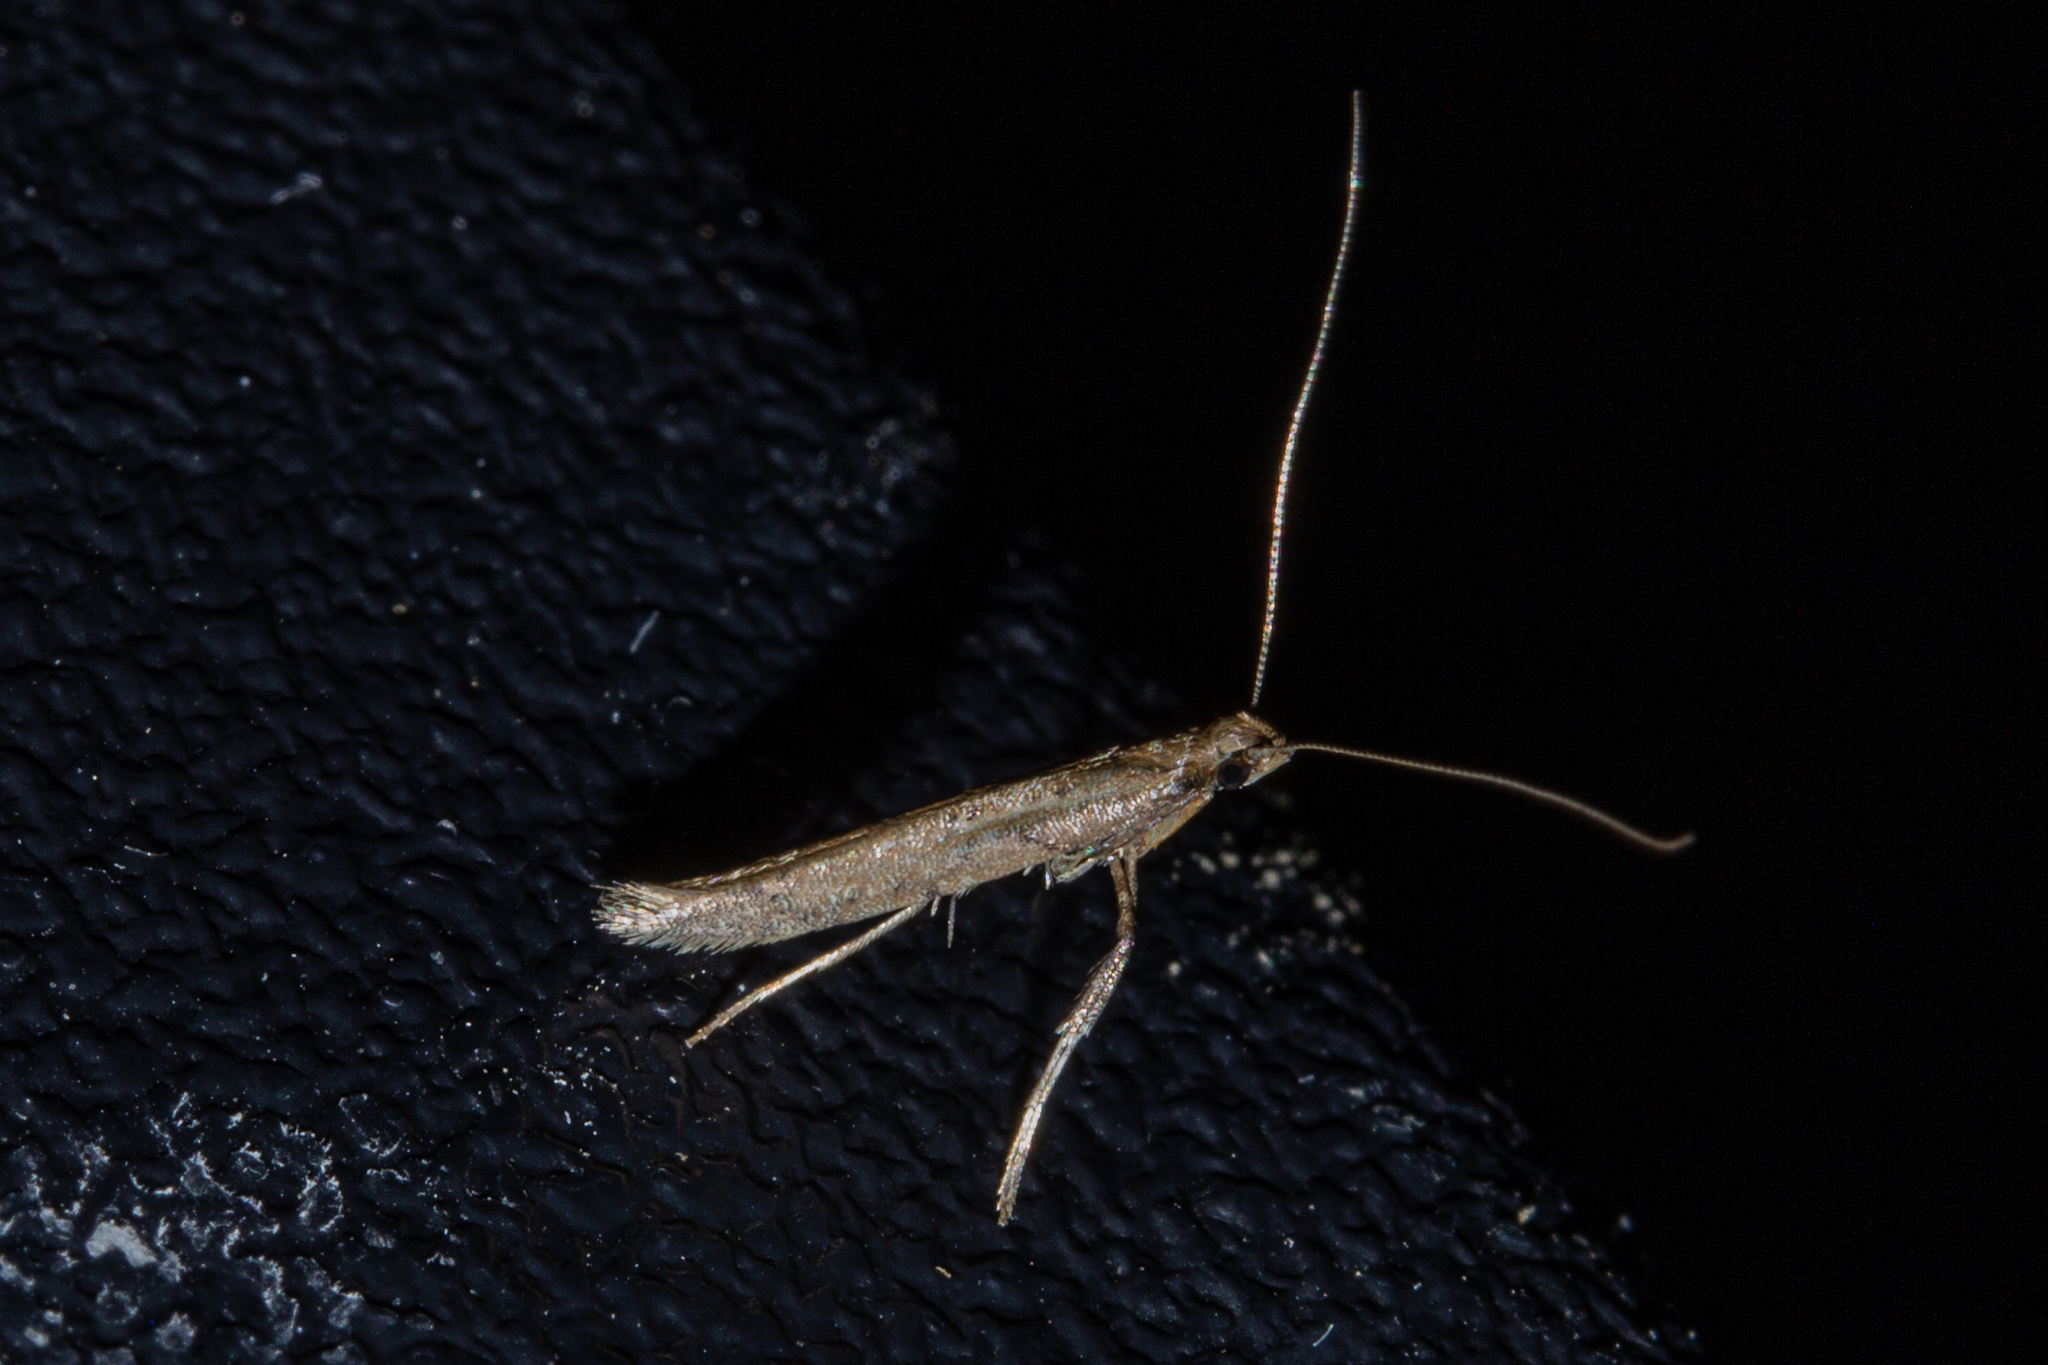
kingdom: Animalia
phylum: Arthropoda
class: Insecta
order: Lepidoptera
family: Gracillariidae
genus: Caloptilia
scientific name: Caloptilia elaeas
